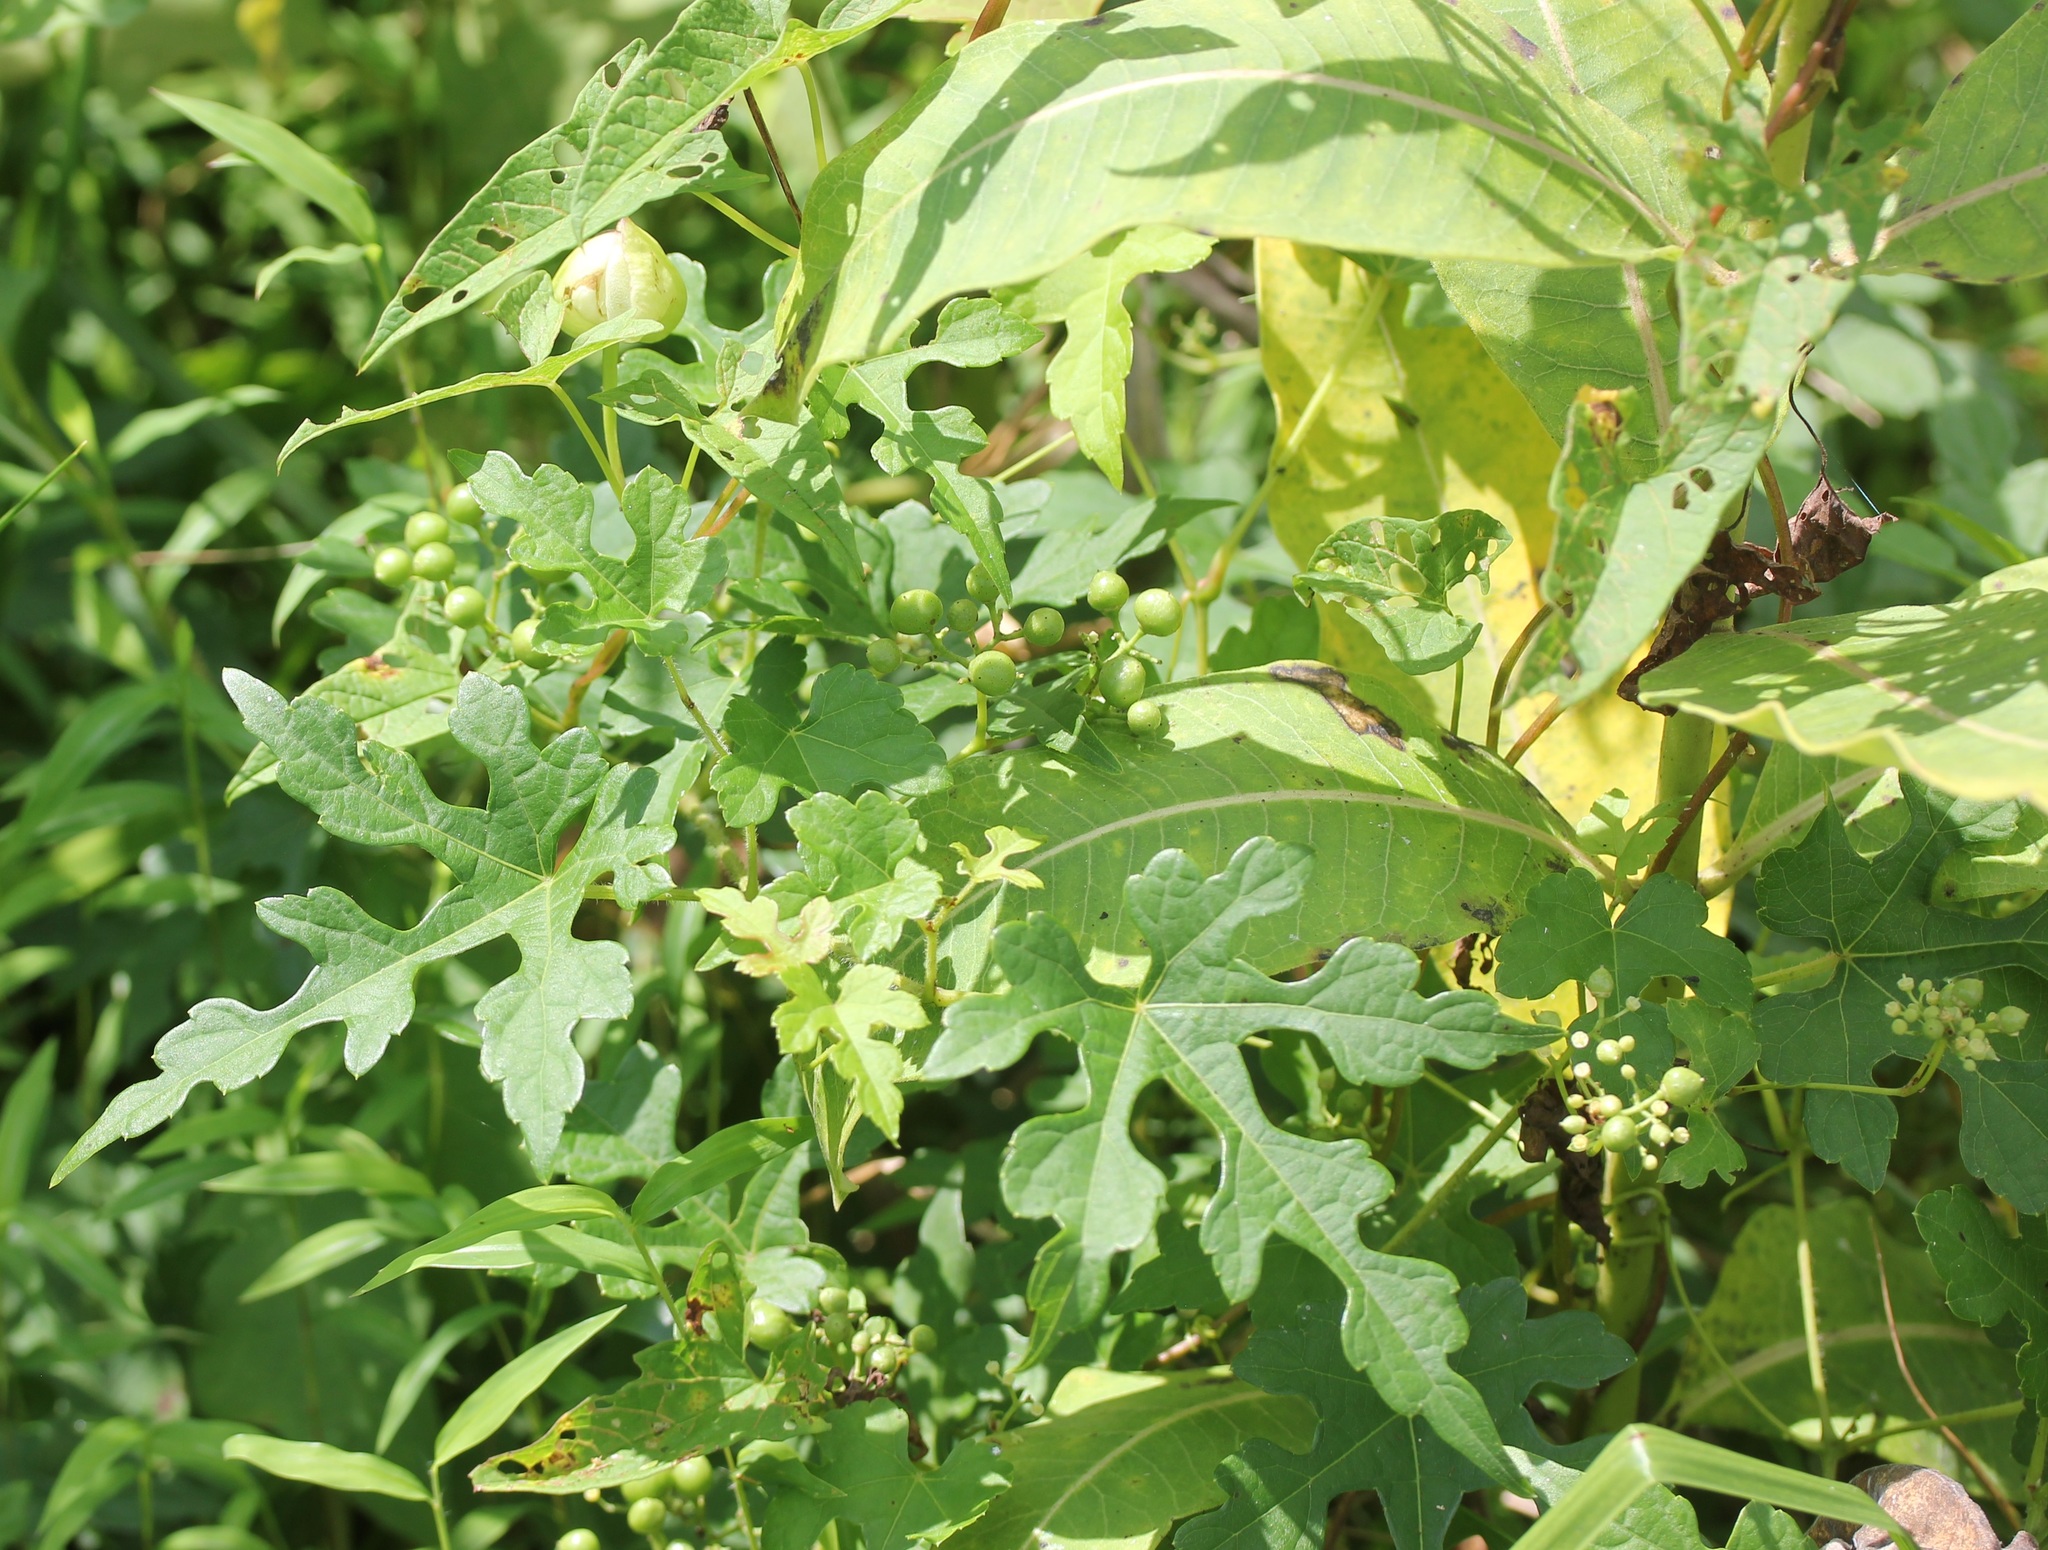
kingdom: Plantae
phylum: Tracheophyta
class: Magnoliopsida
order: Vitales
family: Vitaceae
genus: Ampelopsis
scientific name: Ampelopsis glandulosa
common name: Amur peppervine
